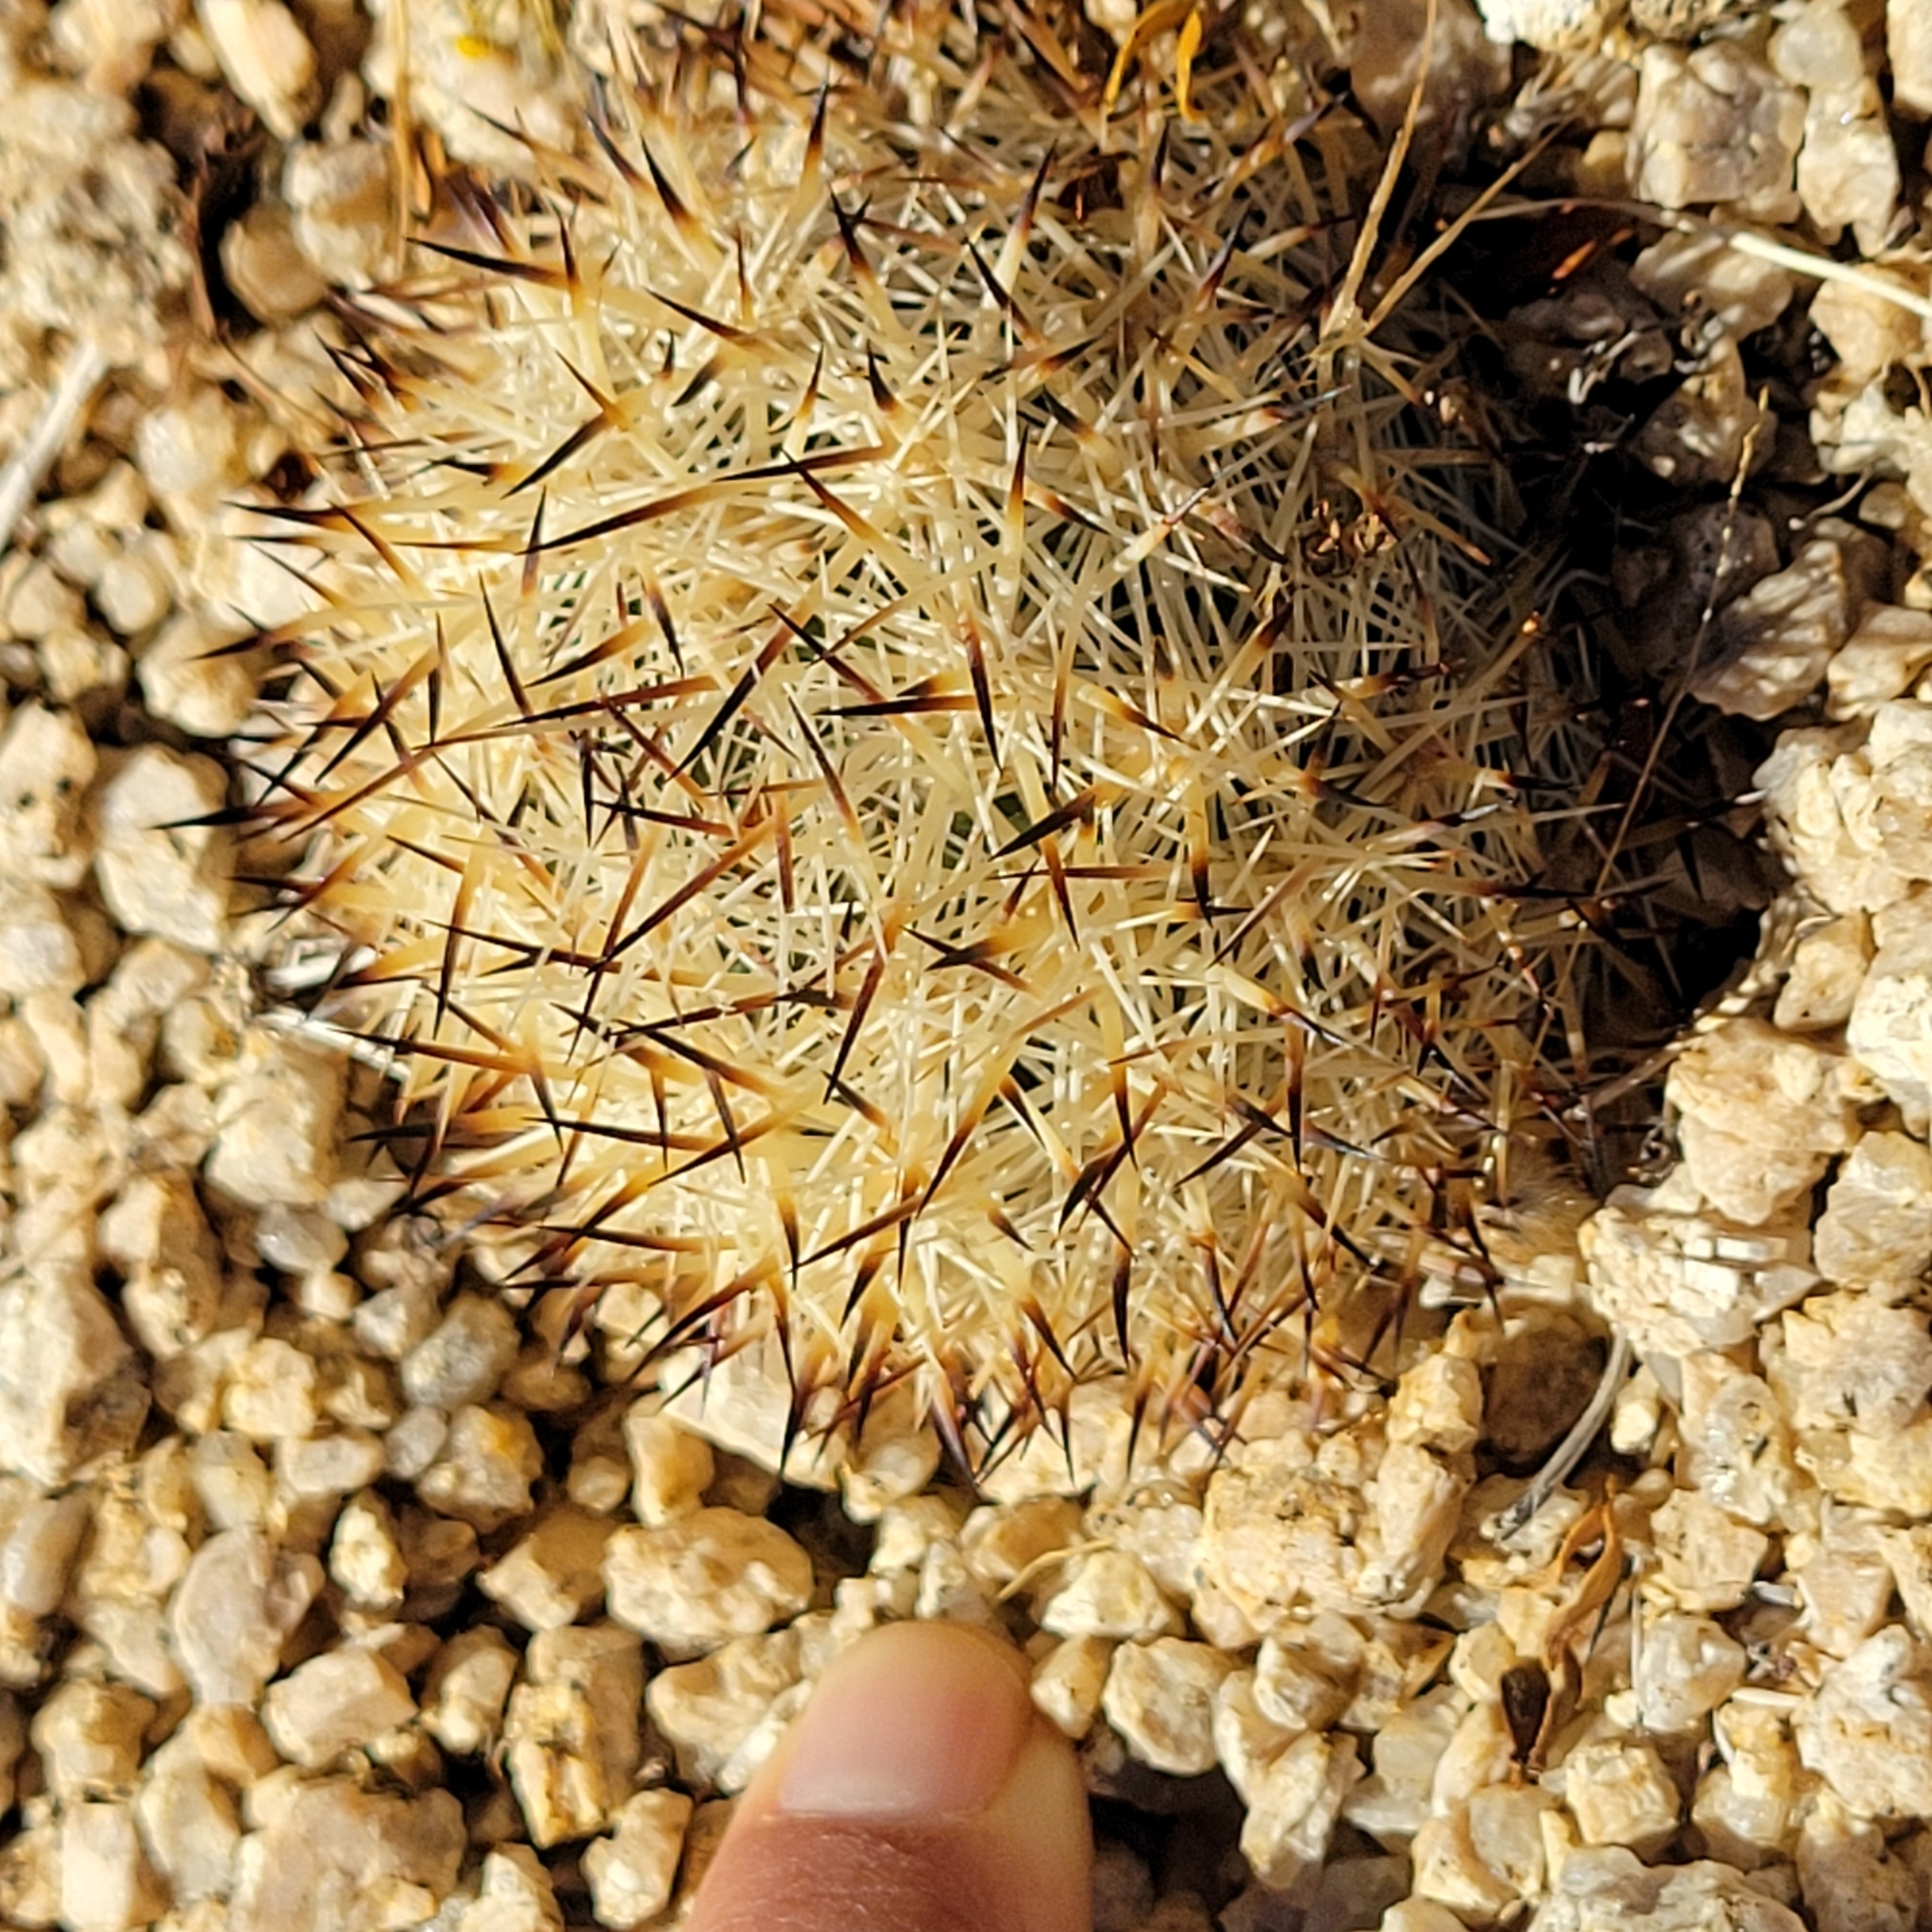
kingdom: Plantae
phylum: Tracheophyta
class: Magnoliopsida
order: Caryophyllales
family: Cactaceae
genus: Pelecyphora
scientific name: Pelecyphora alversonii
